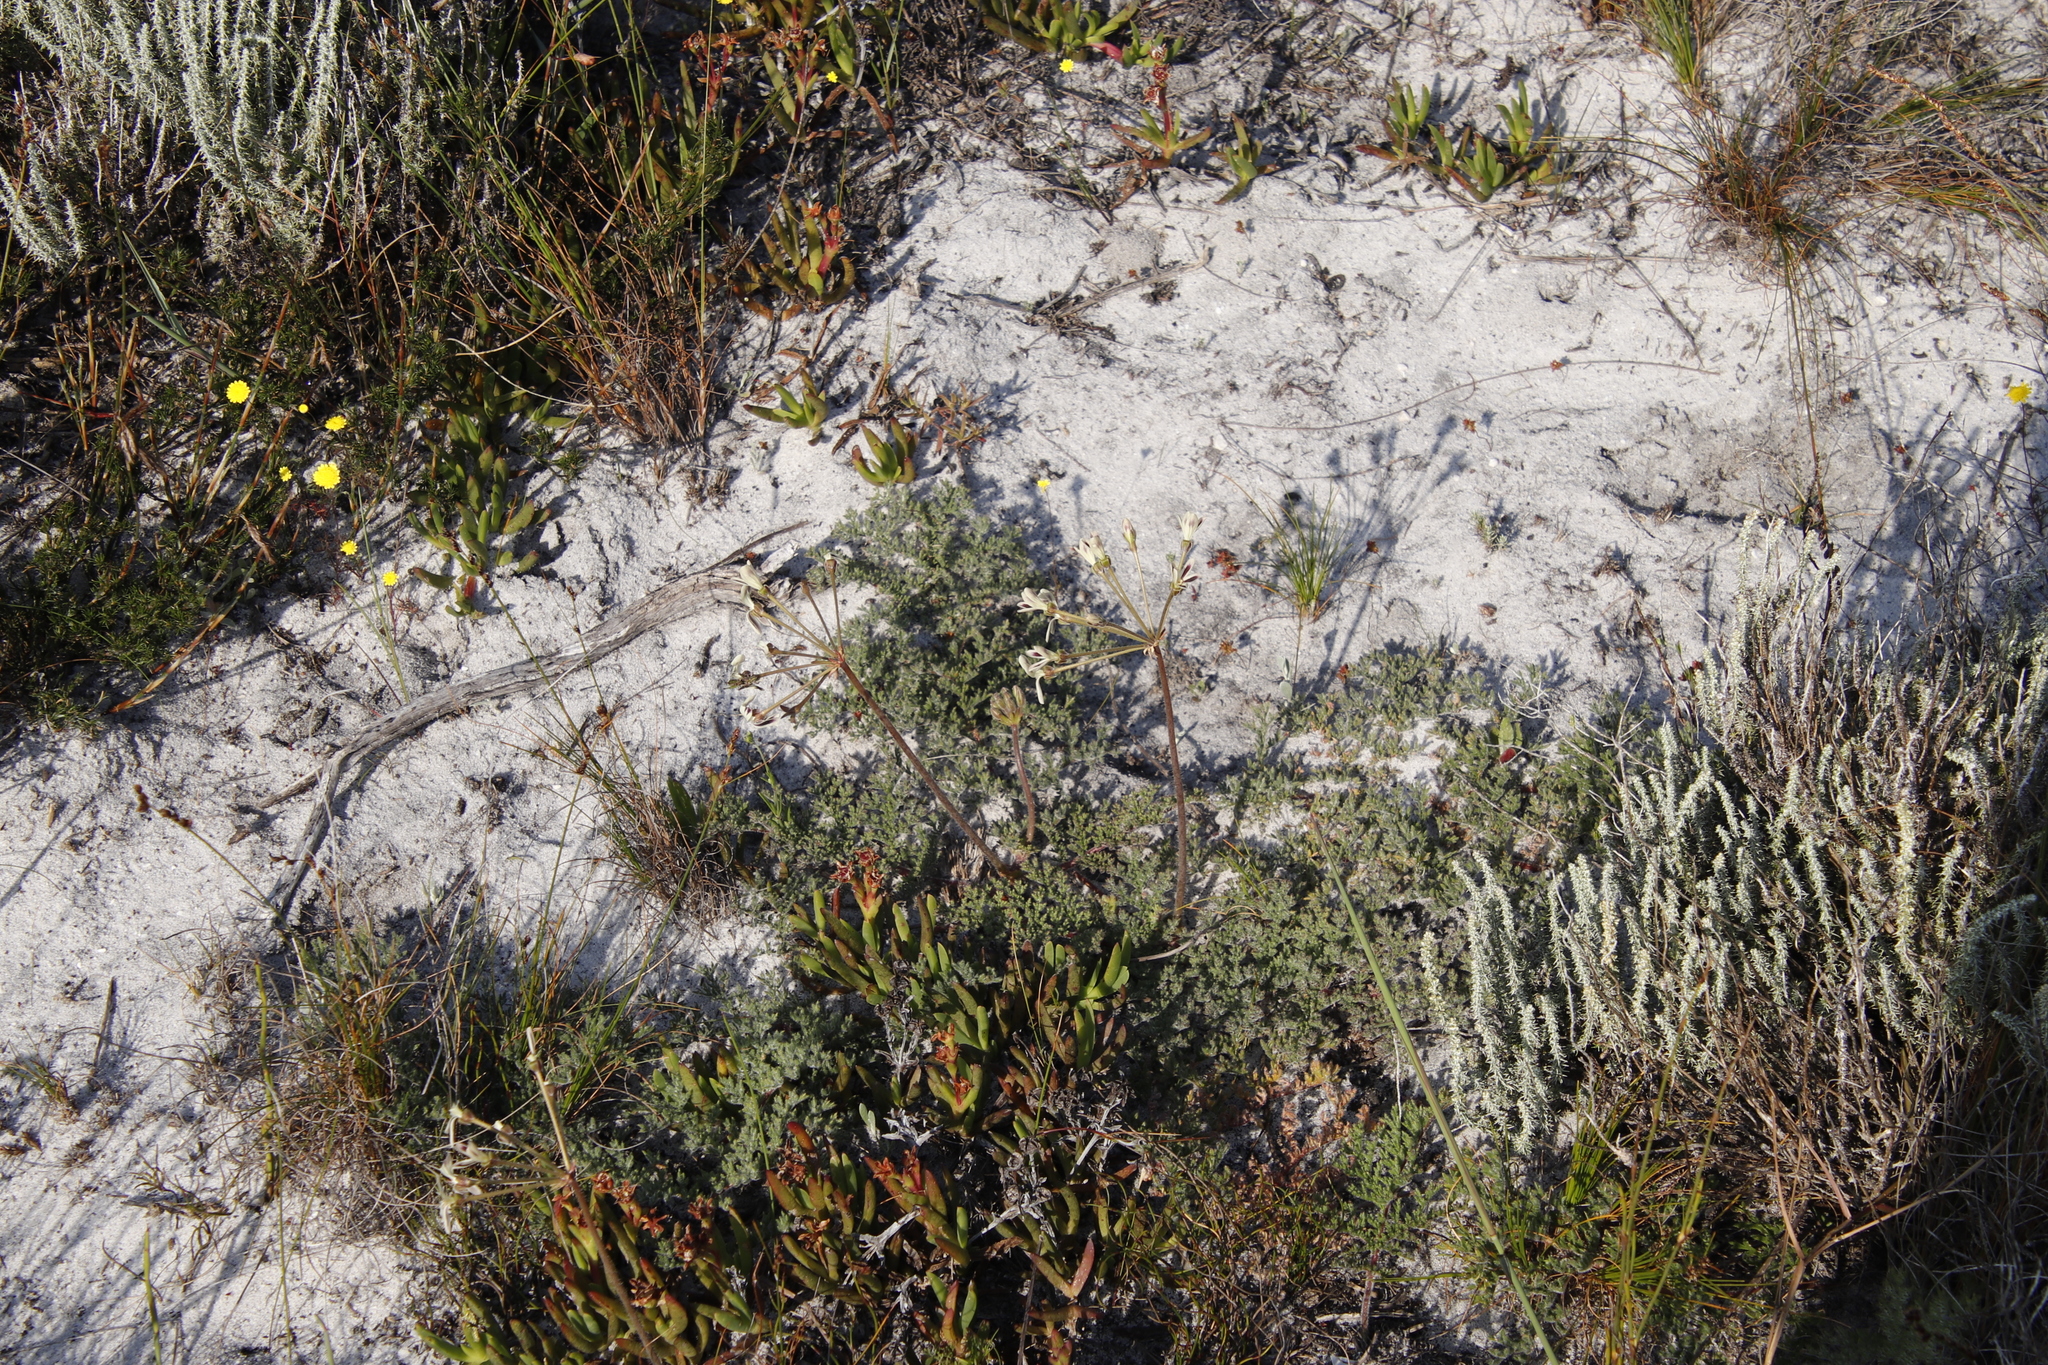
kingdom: Plantae
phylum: Tracheophyta
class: Magnoliopsida
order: Geraniales
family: Geraniaceae
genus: Pelargonium
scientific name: Pelargonium triste
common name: Night-scent pelargonium
